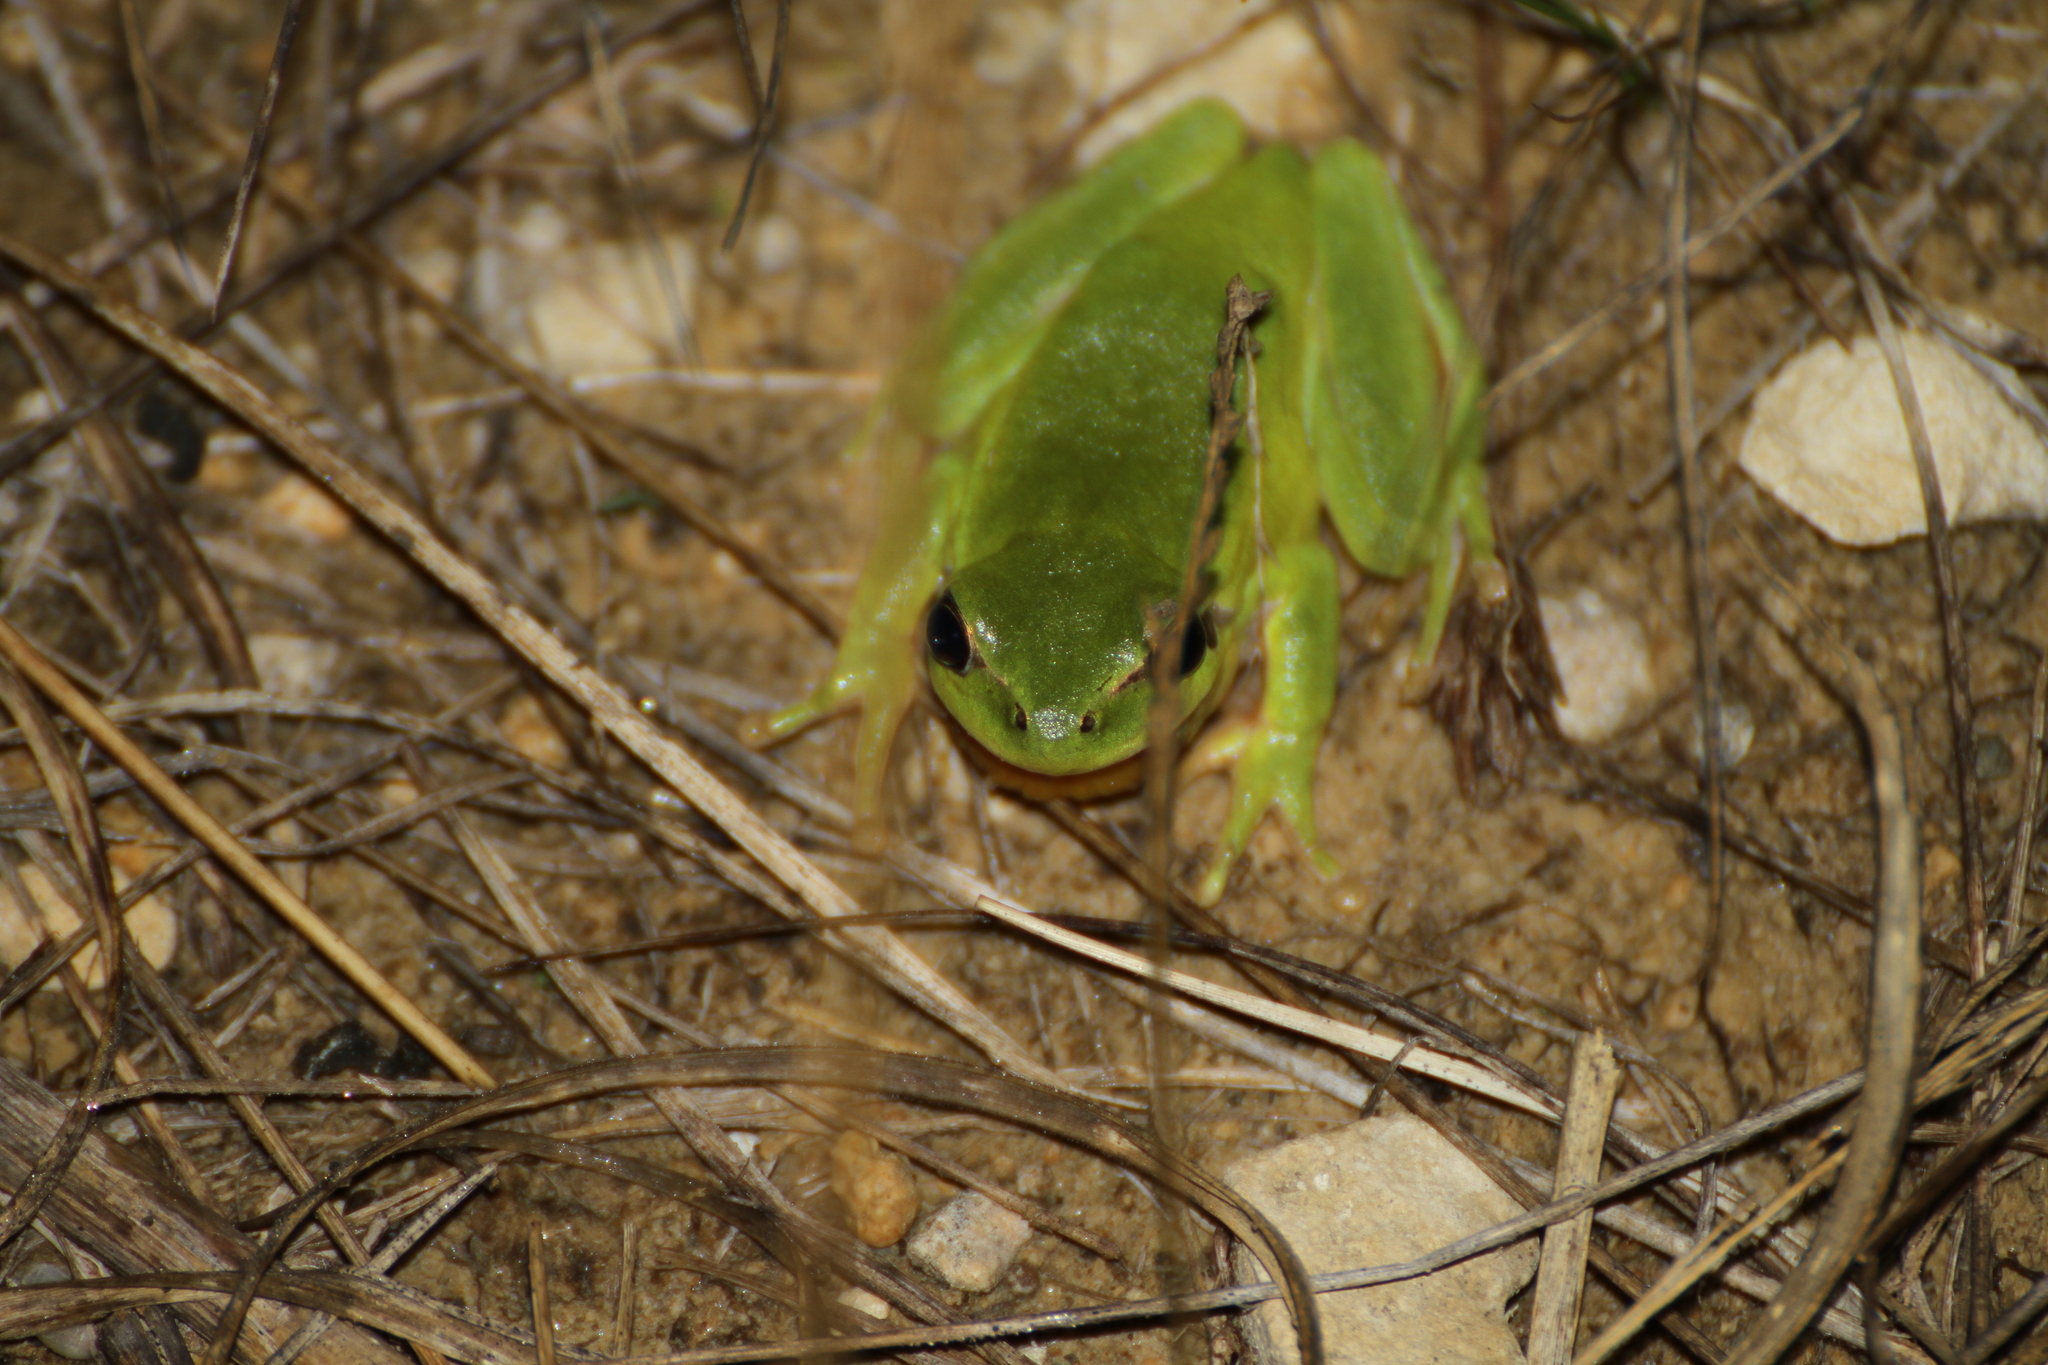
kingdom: Animalia
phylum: Chordata
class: Amphibia
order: Anura
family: Hylidae
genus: Hyla
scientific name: Hyla meridionalis
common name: Stripeless tree frog
